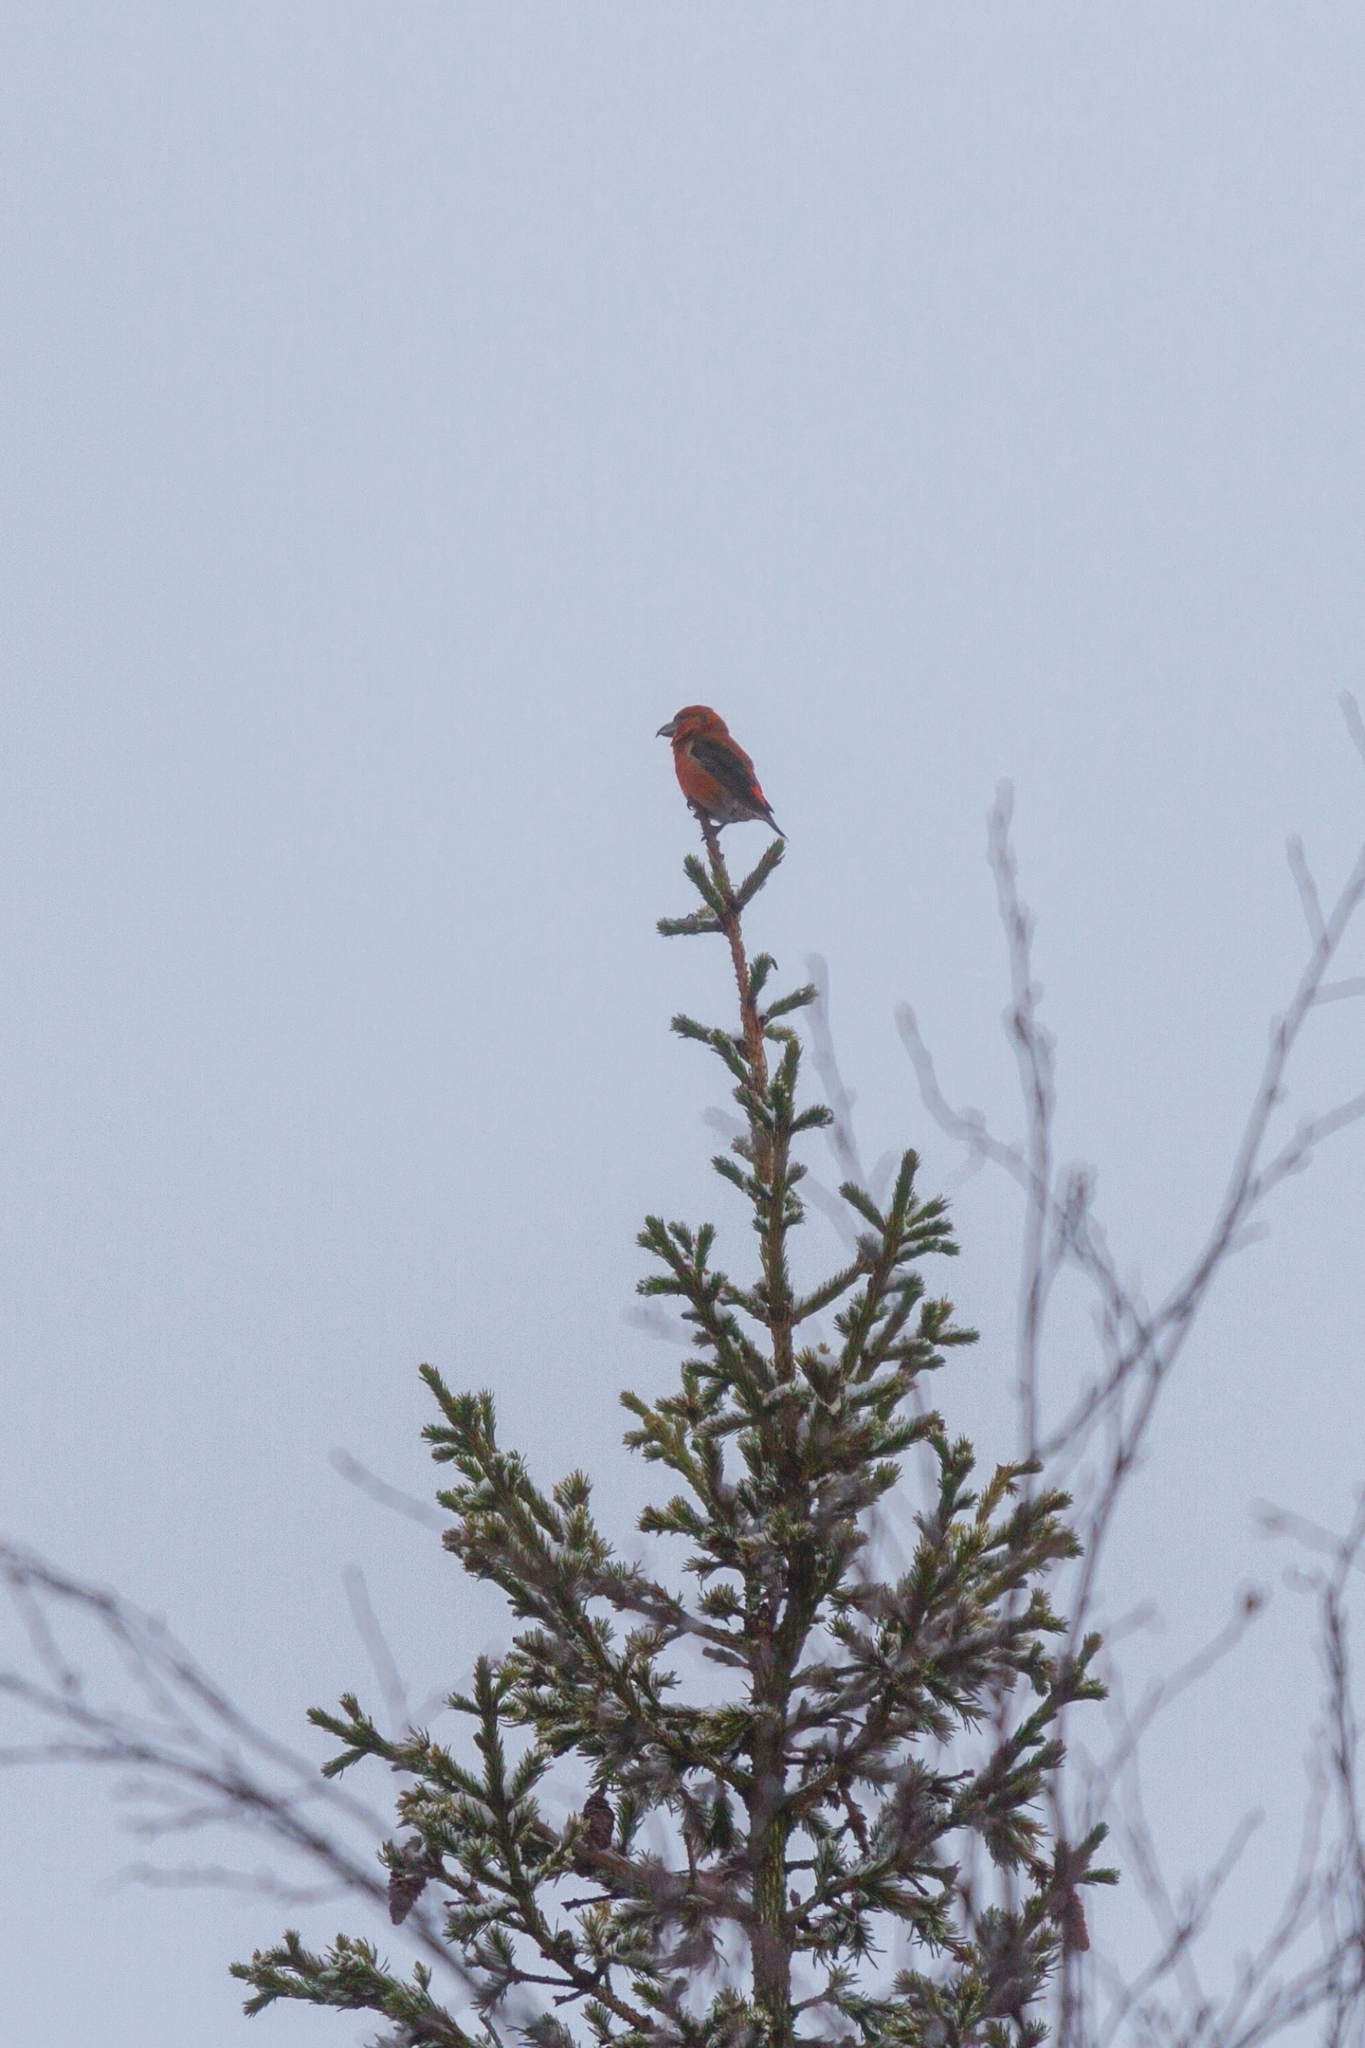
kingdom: Animalia
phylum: Chordata
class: Aves
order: Passeriformes
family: Fringillidae
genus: Loxia
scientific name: Loxia curvirostra
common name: Red crossbill
